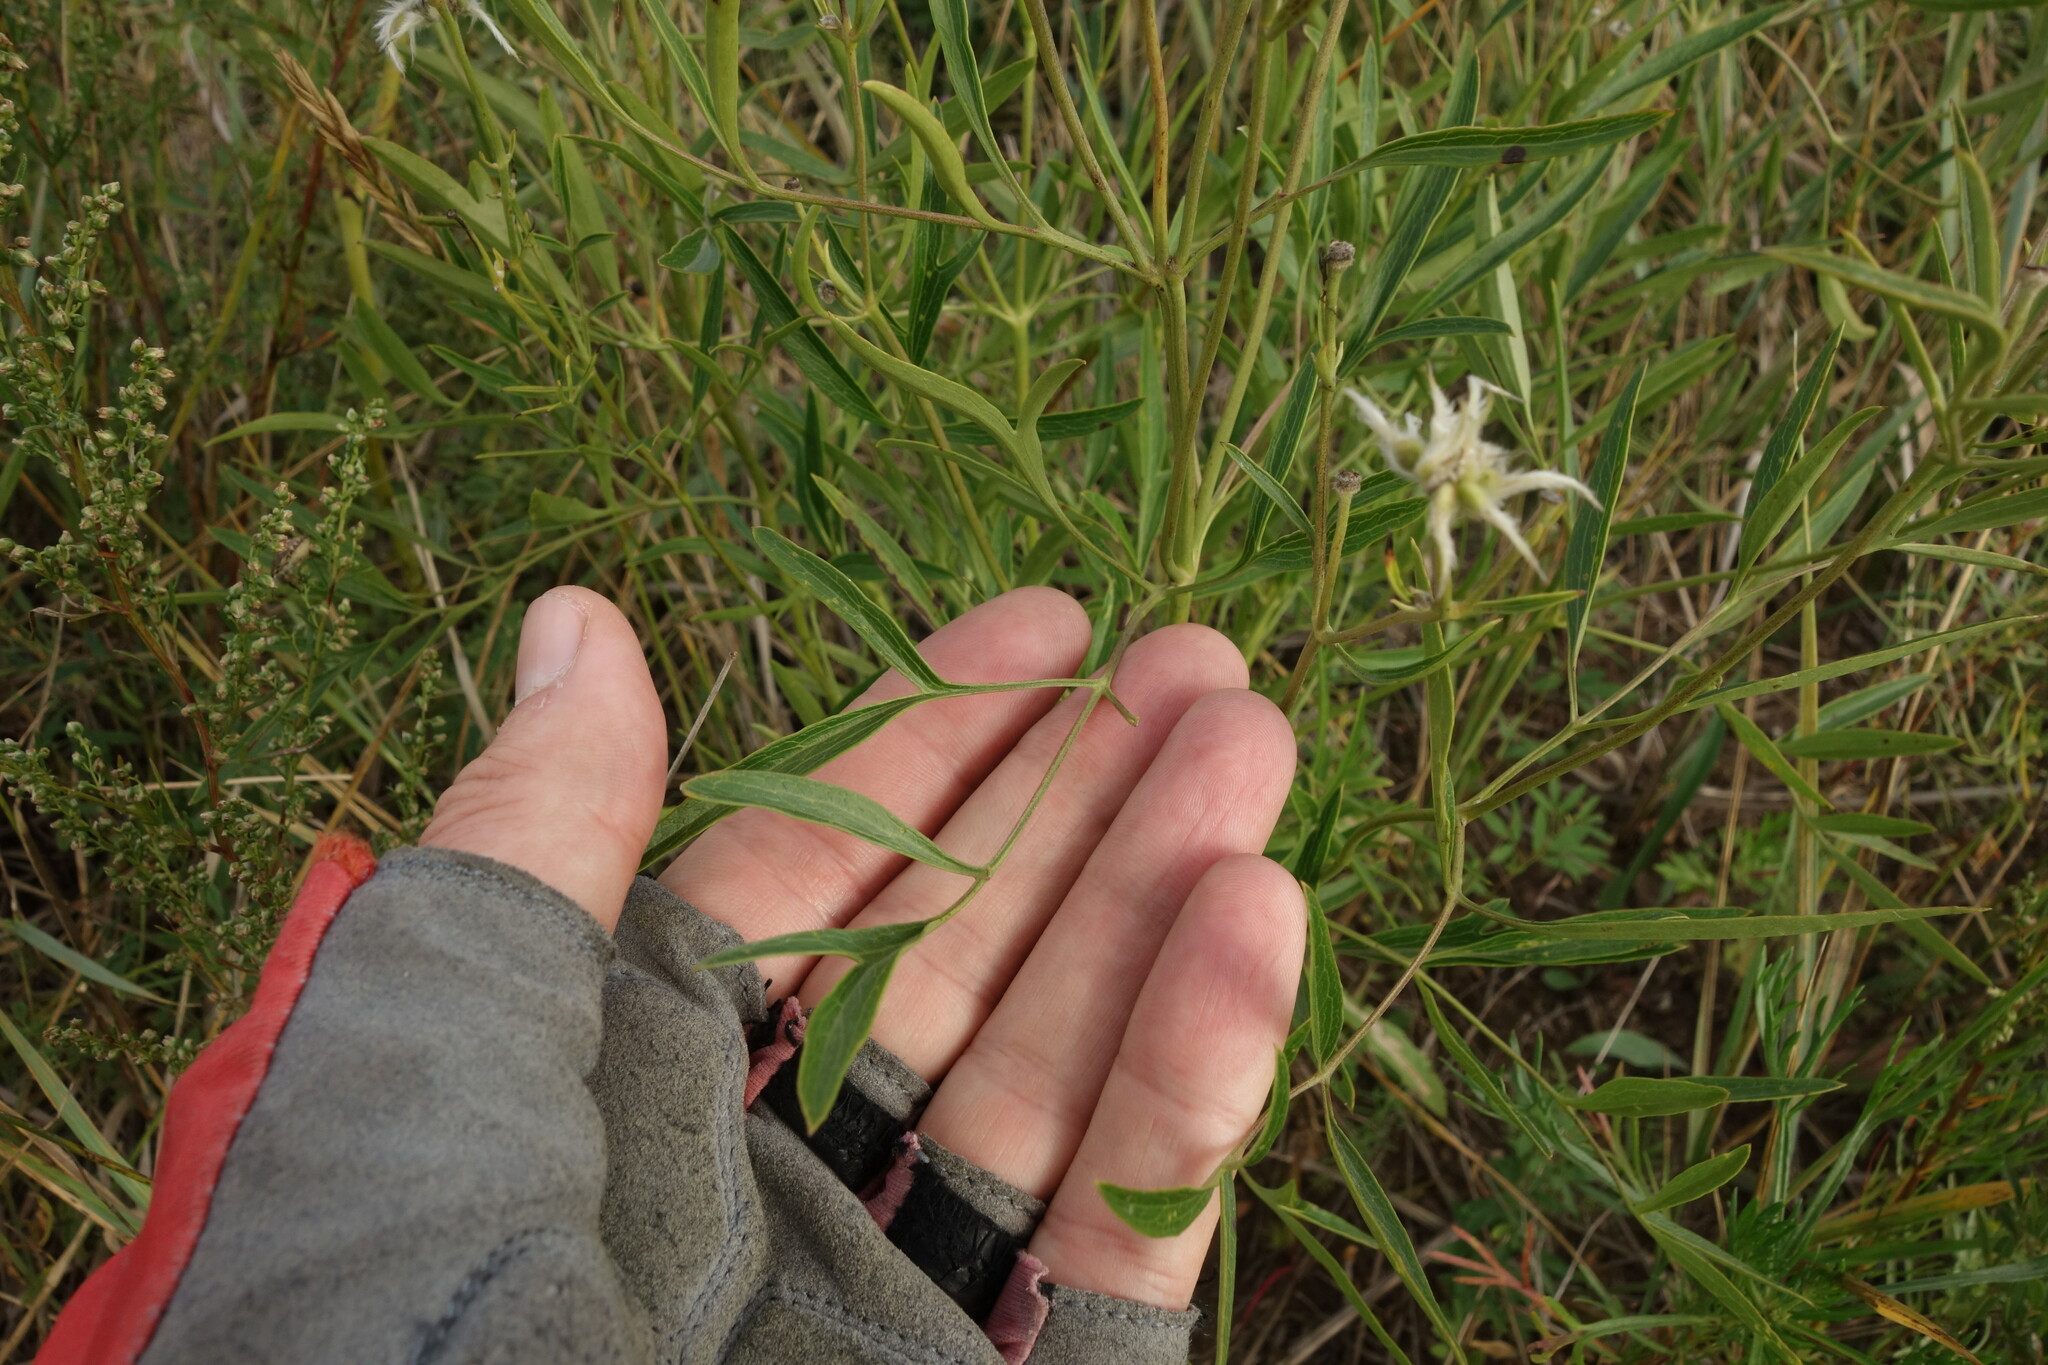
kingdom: Plantae
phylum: Tracheophyta
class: Magnoliopsida
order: Ranunculales
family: Ranunculaceae
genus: Clematis
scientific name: Clematis hexapetala
